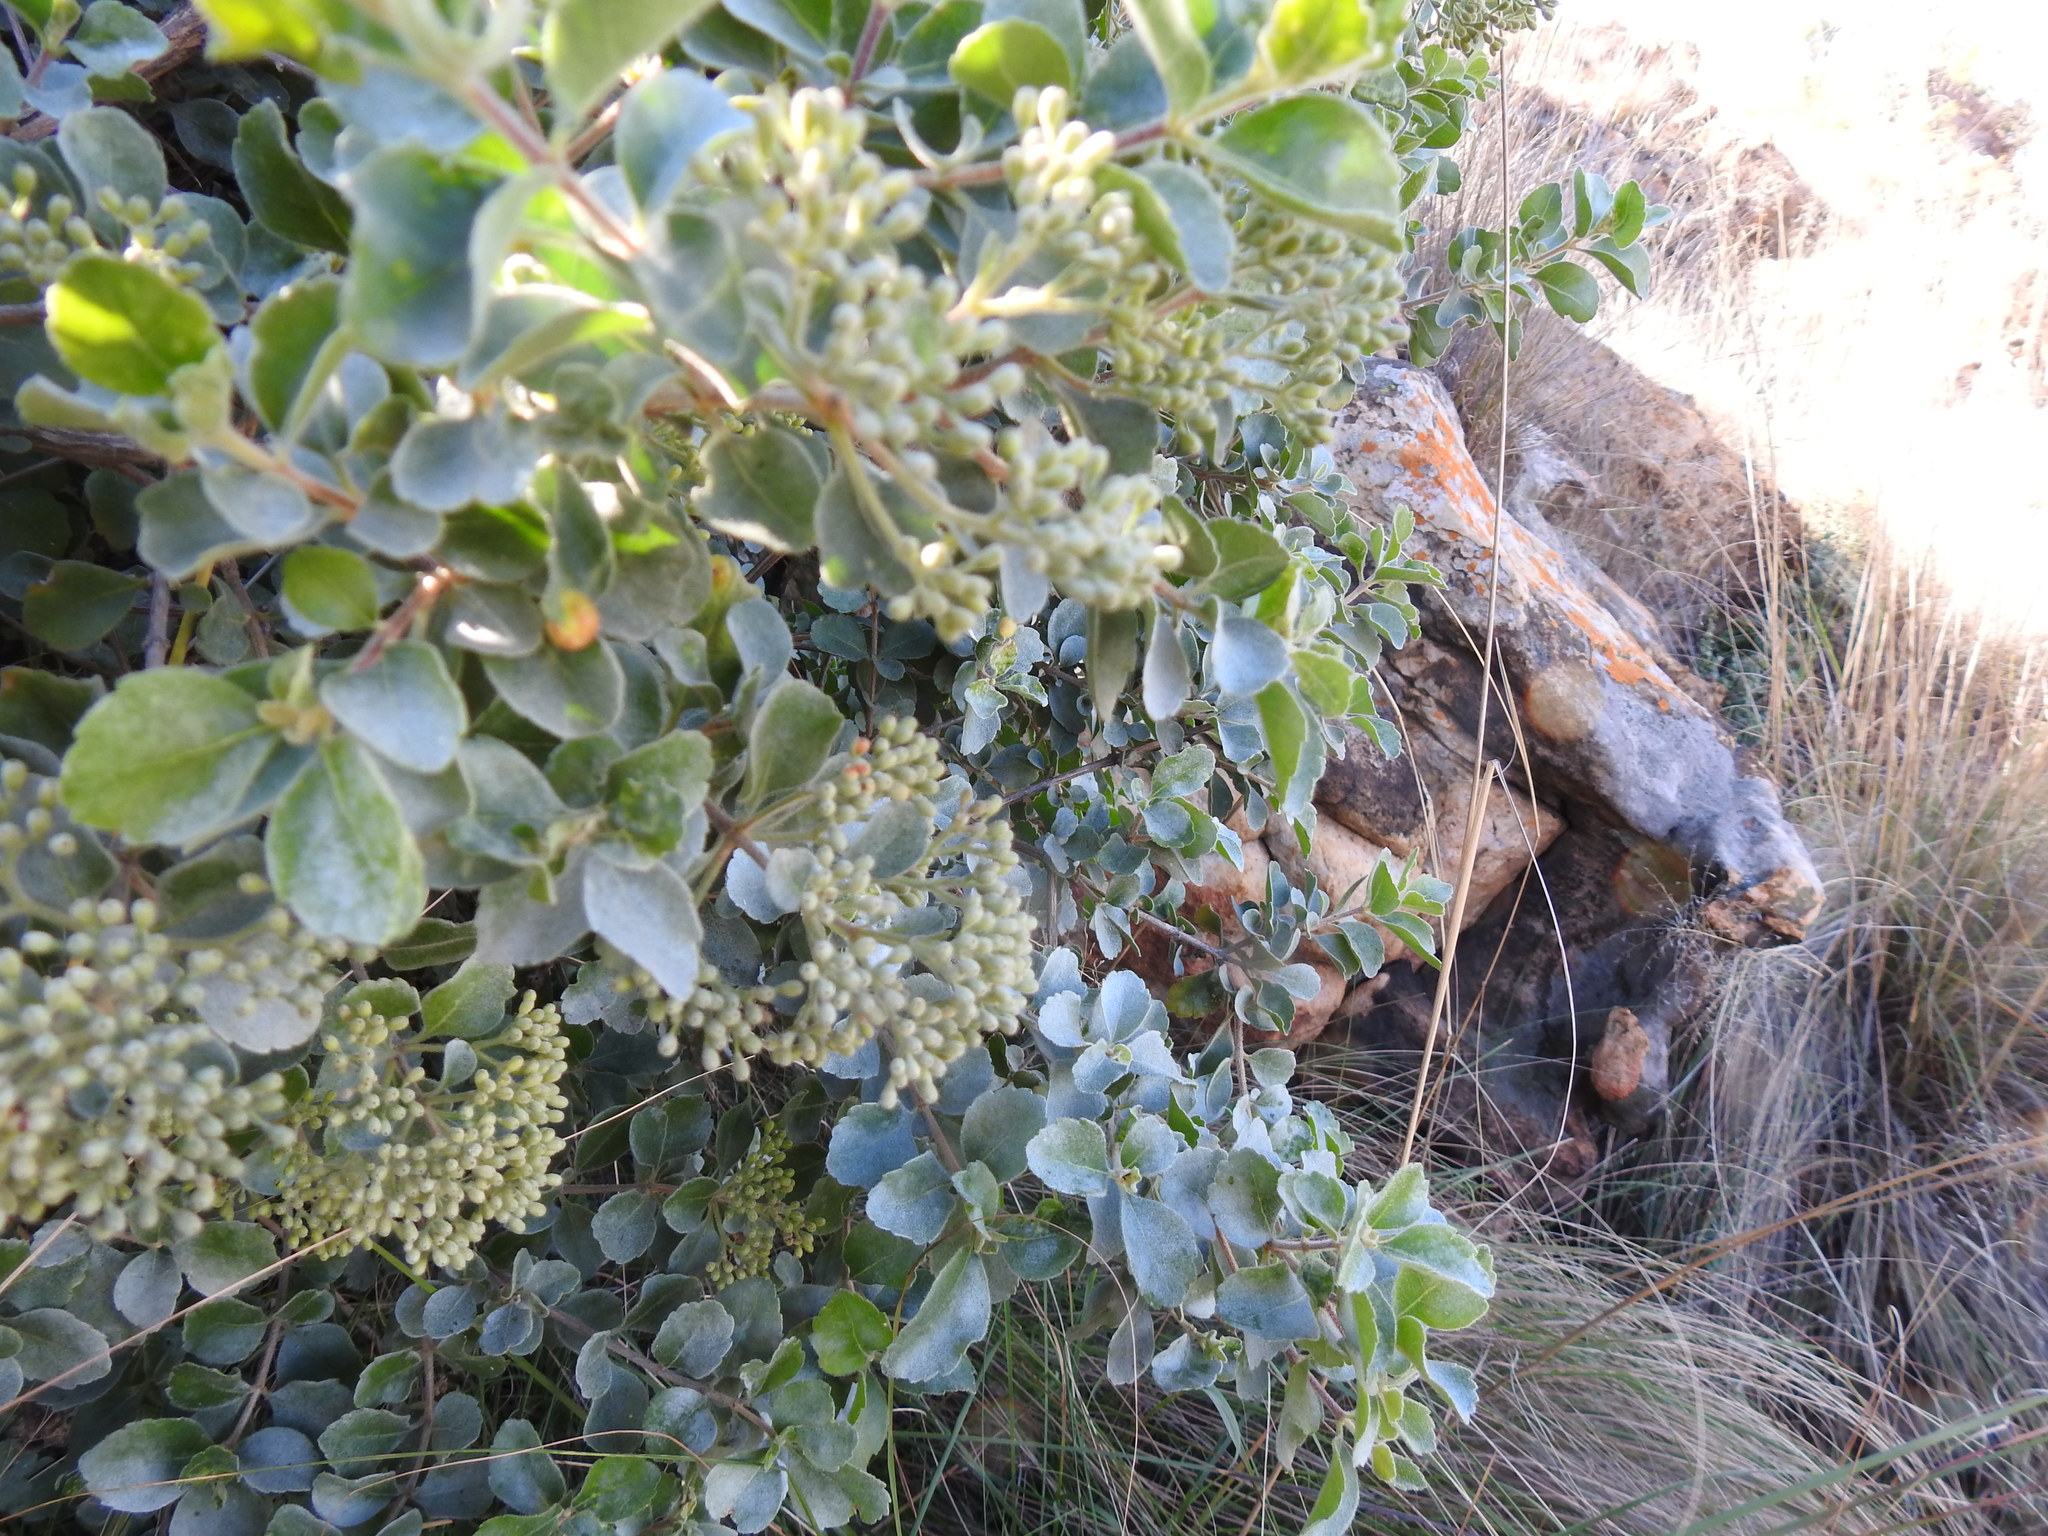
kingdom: Plantae
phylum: Tracheophyta
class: Magnoliopsida
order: Lamiales
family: Stilbaceae
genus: Nuxia
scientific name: Nuxia congesta
